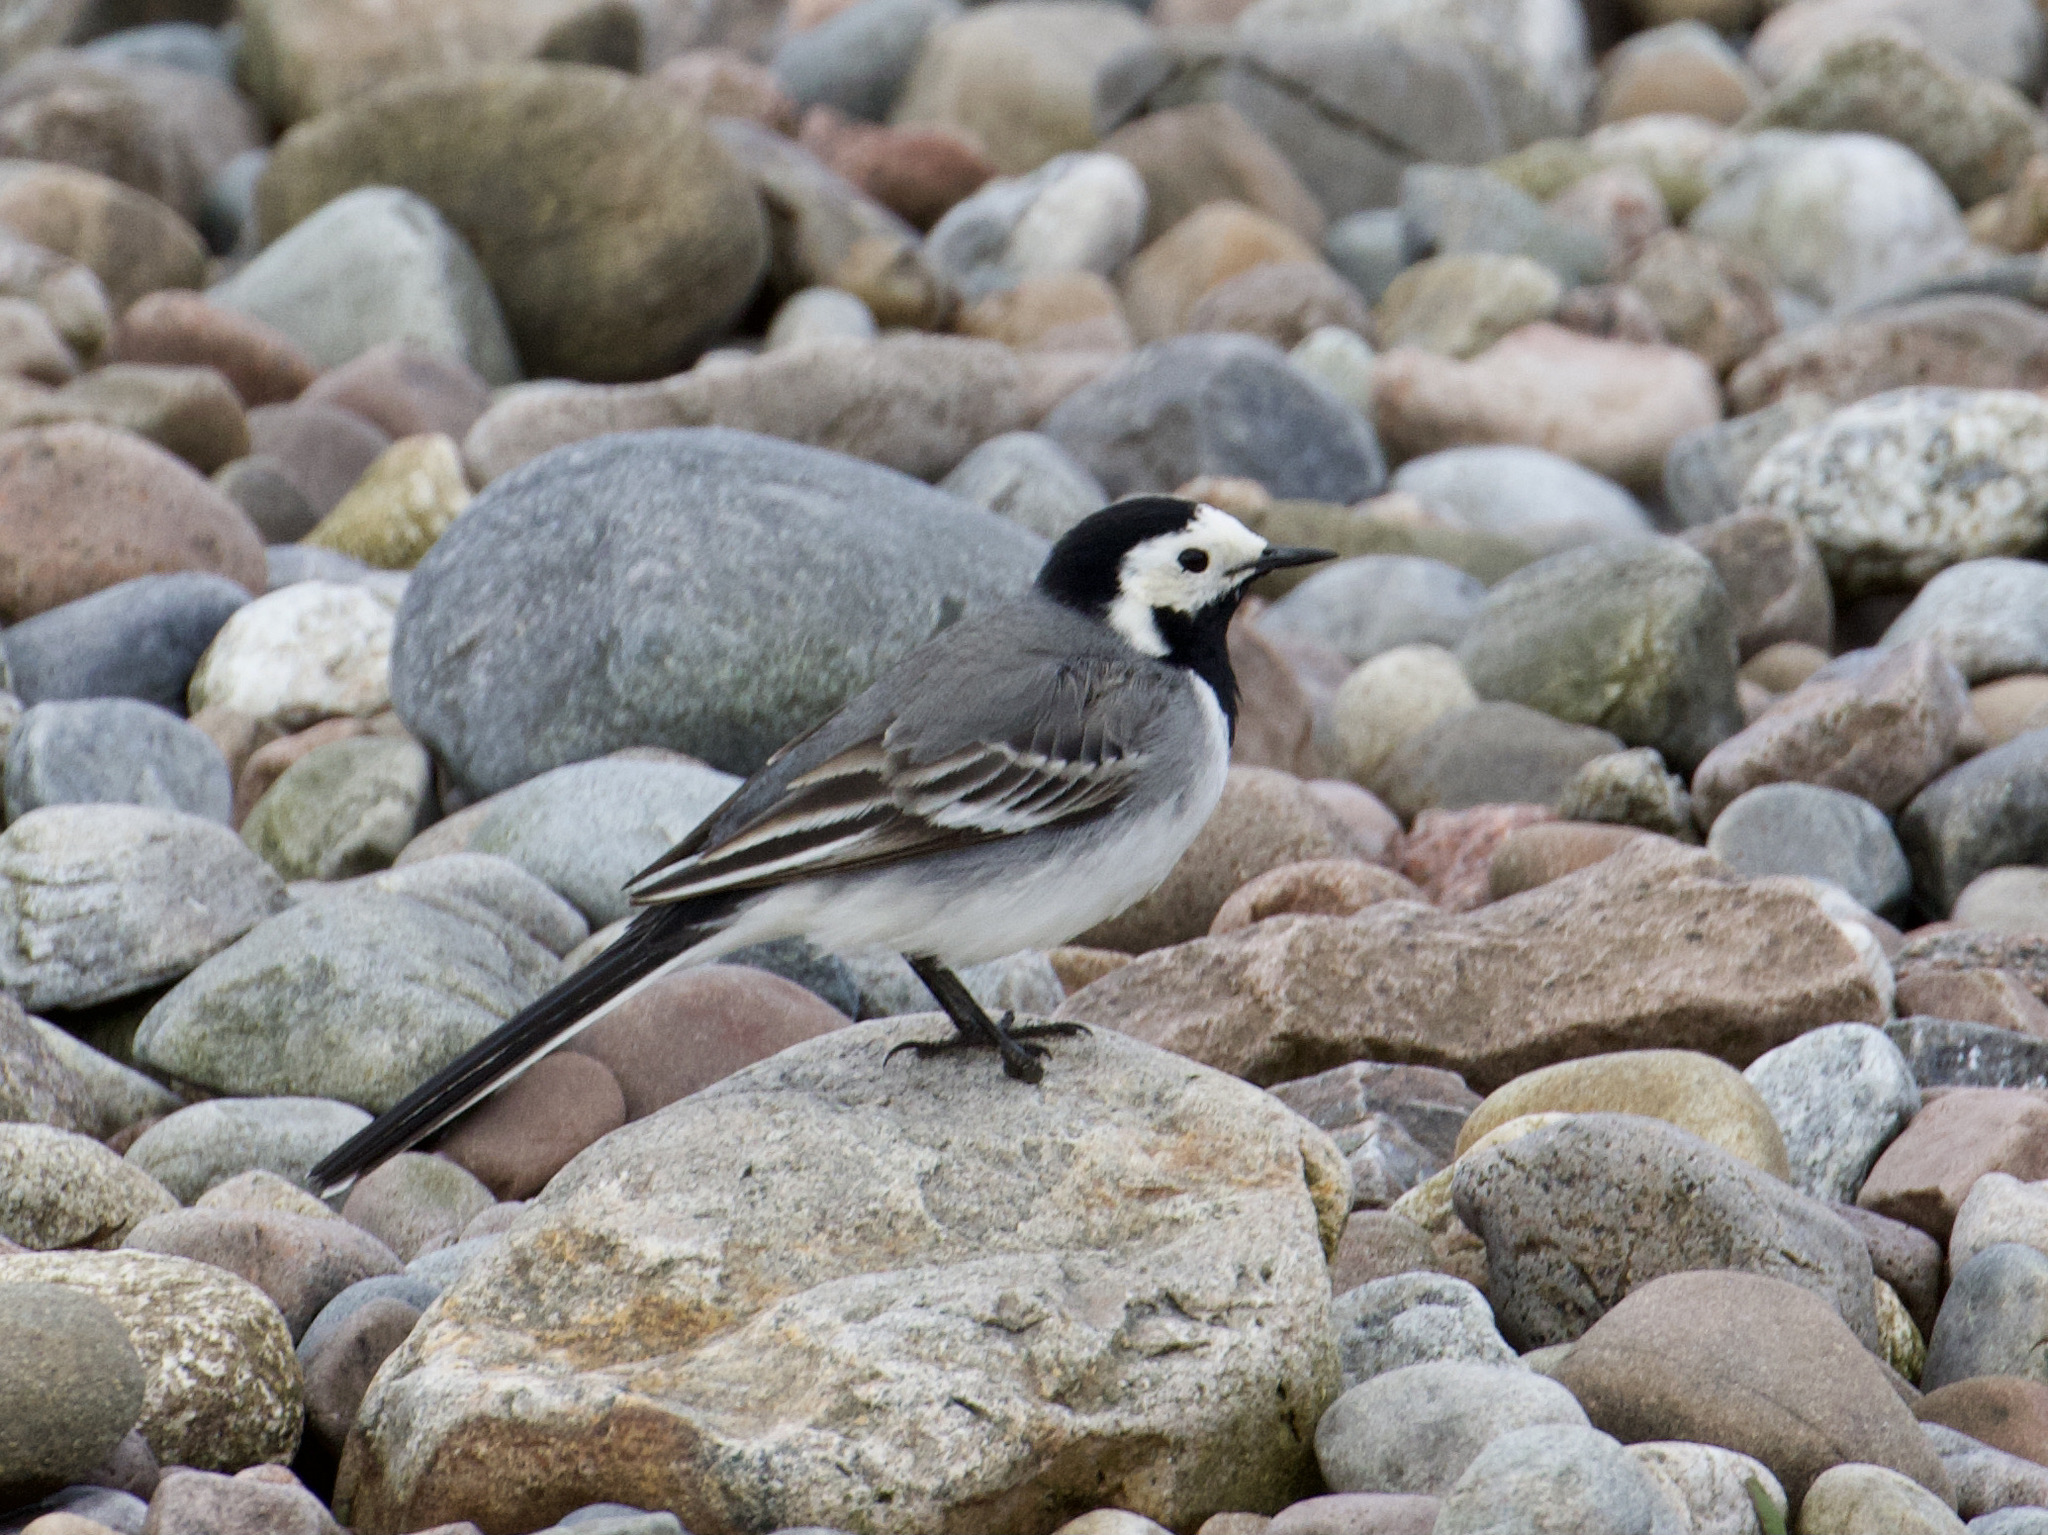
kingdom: Animalia
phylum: Chordata
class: Aves
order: Passeriformes
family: Motacillidae
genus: Motacilla
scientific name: Motacilla alba
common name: White wagtail
